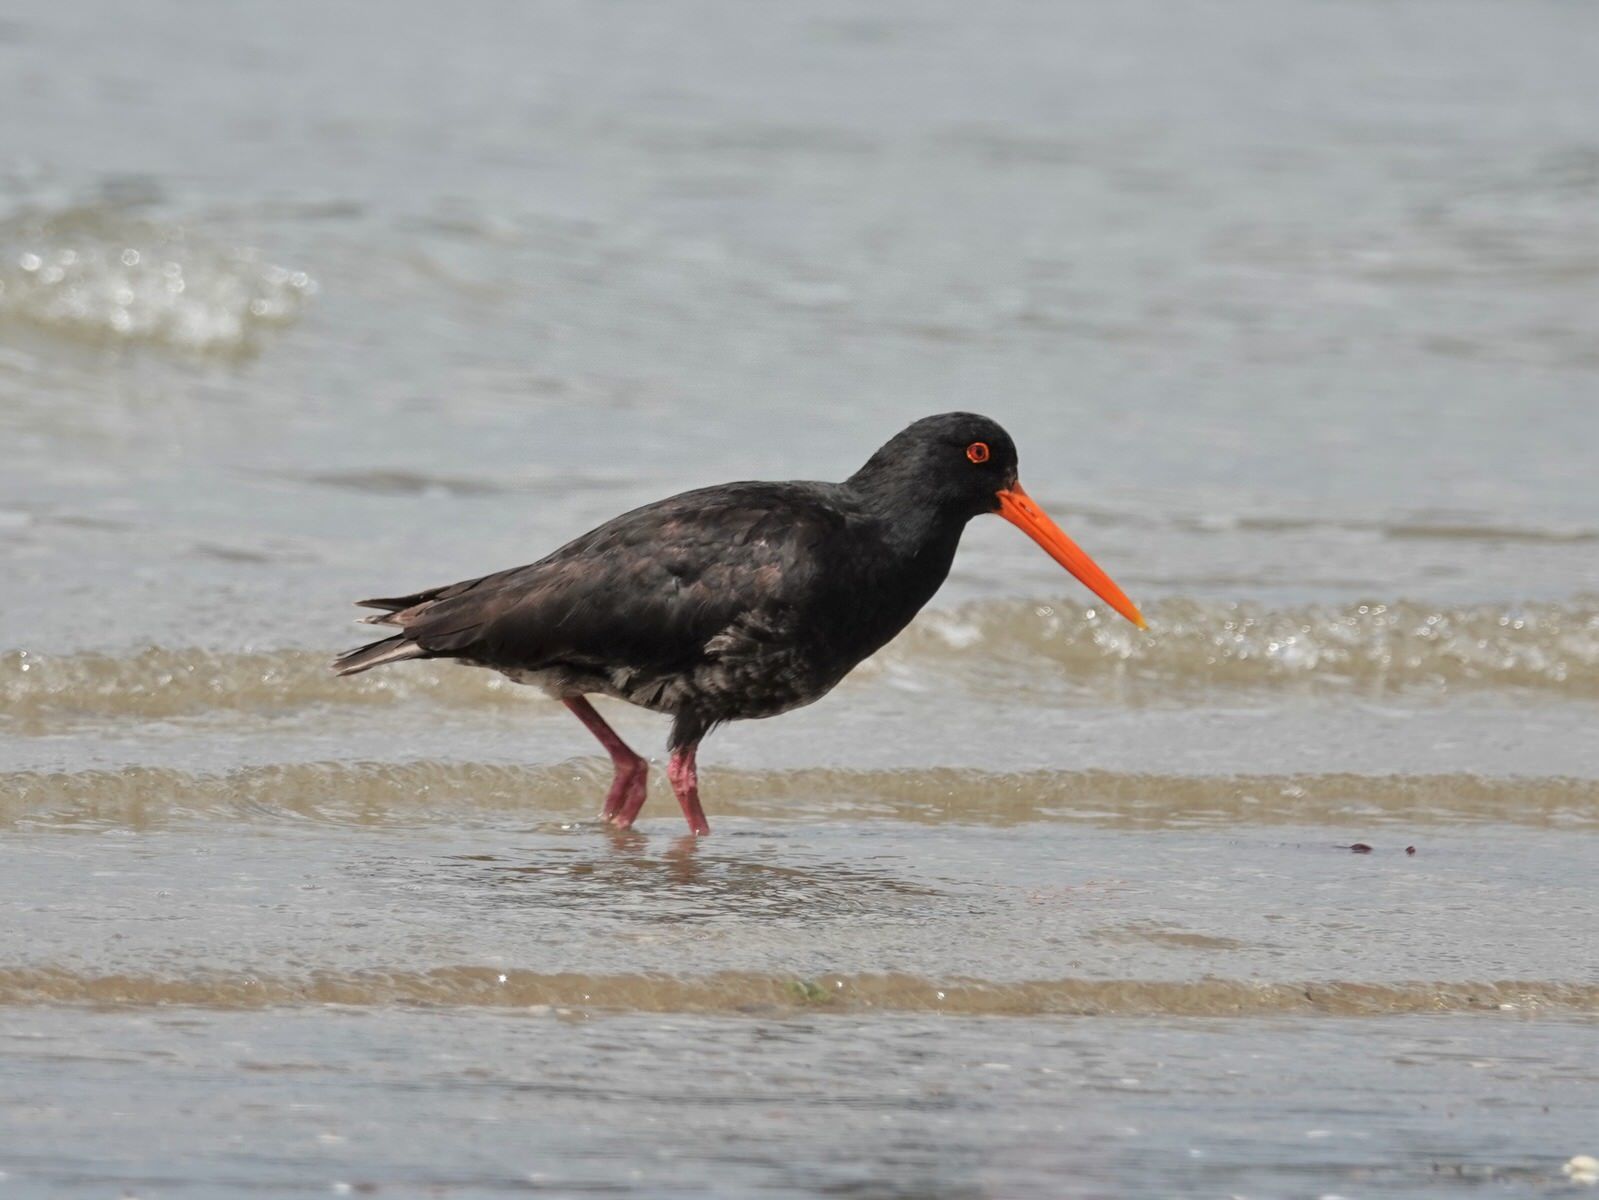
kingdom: Animalia
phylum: Chordata
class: Aves
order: Charadriiformes
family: Haematopodidae
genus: Haematopus
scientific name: Haematopus unicolor
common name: Variable oystercatcher
